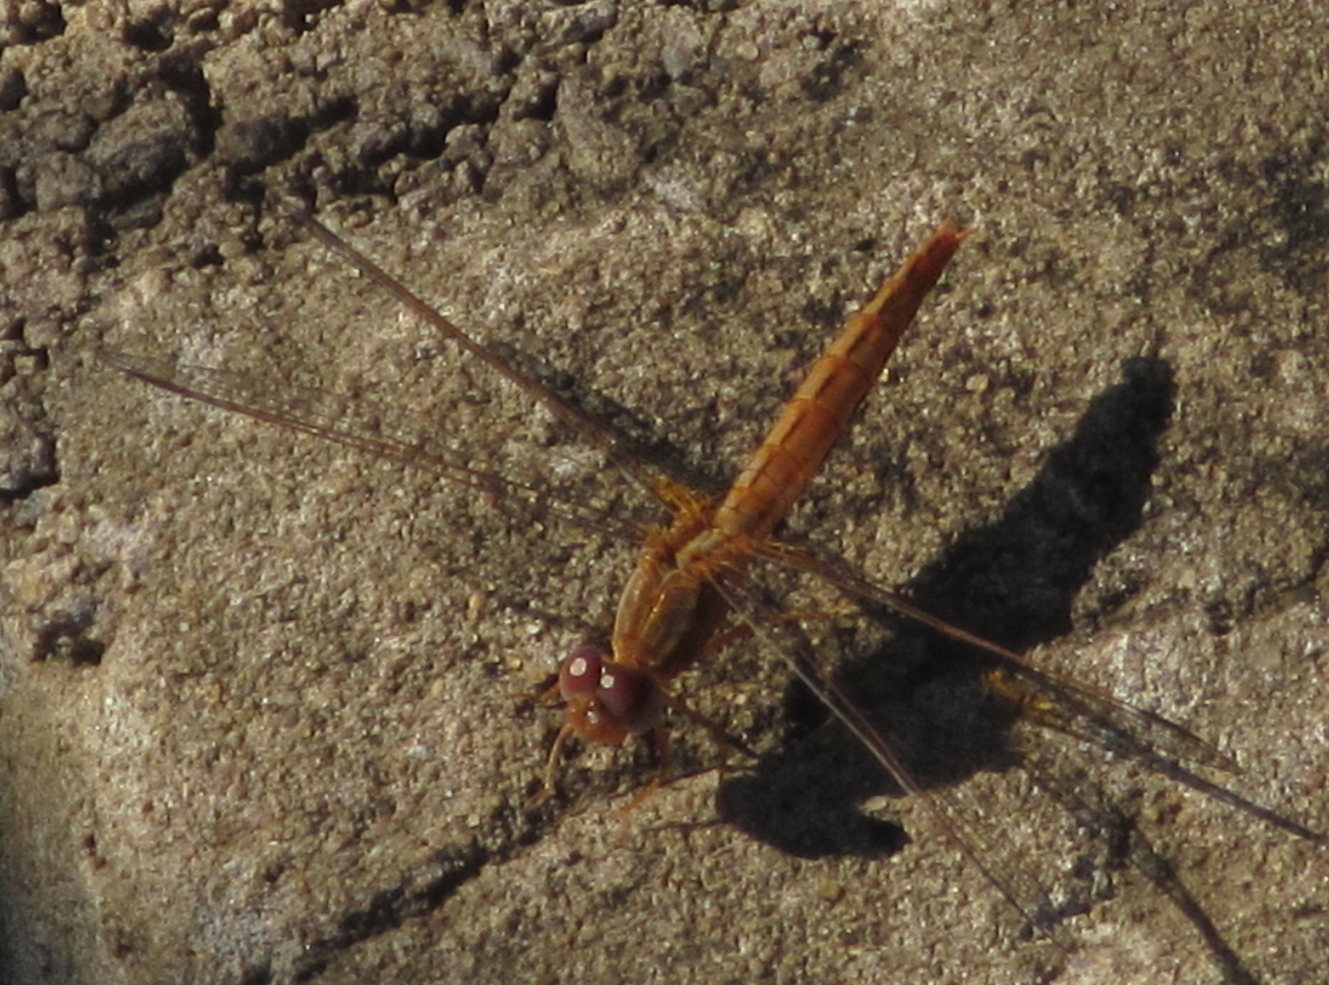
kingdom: Animalia
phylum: Arthropoda
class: Insecta
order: Odonata
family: Libellulidae
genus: Crocothemis
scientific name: Crocothemis sanguinolenta
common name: Little scarlet
